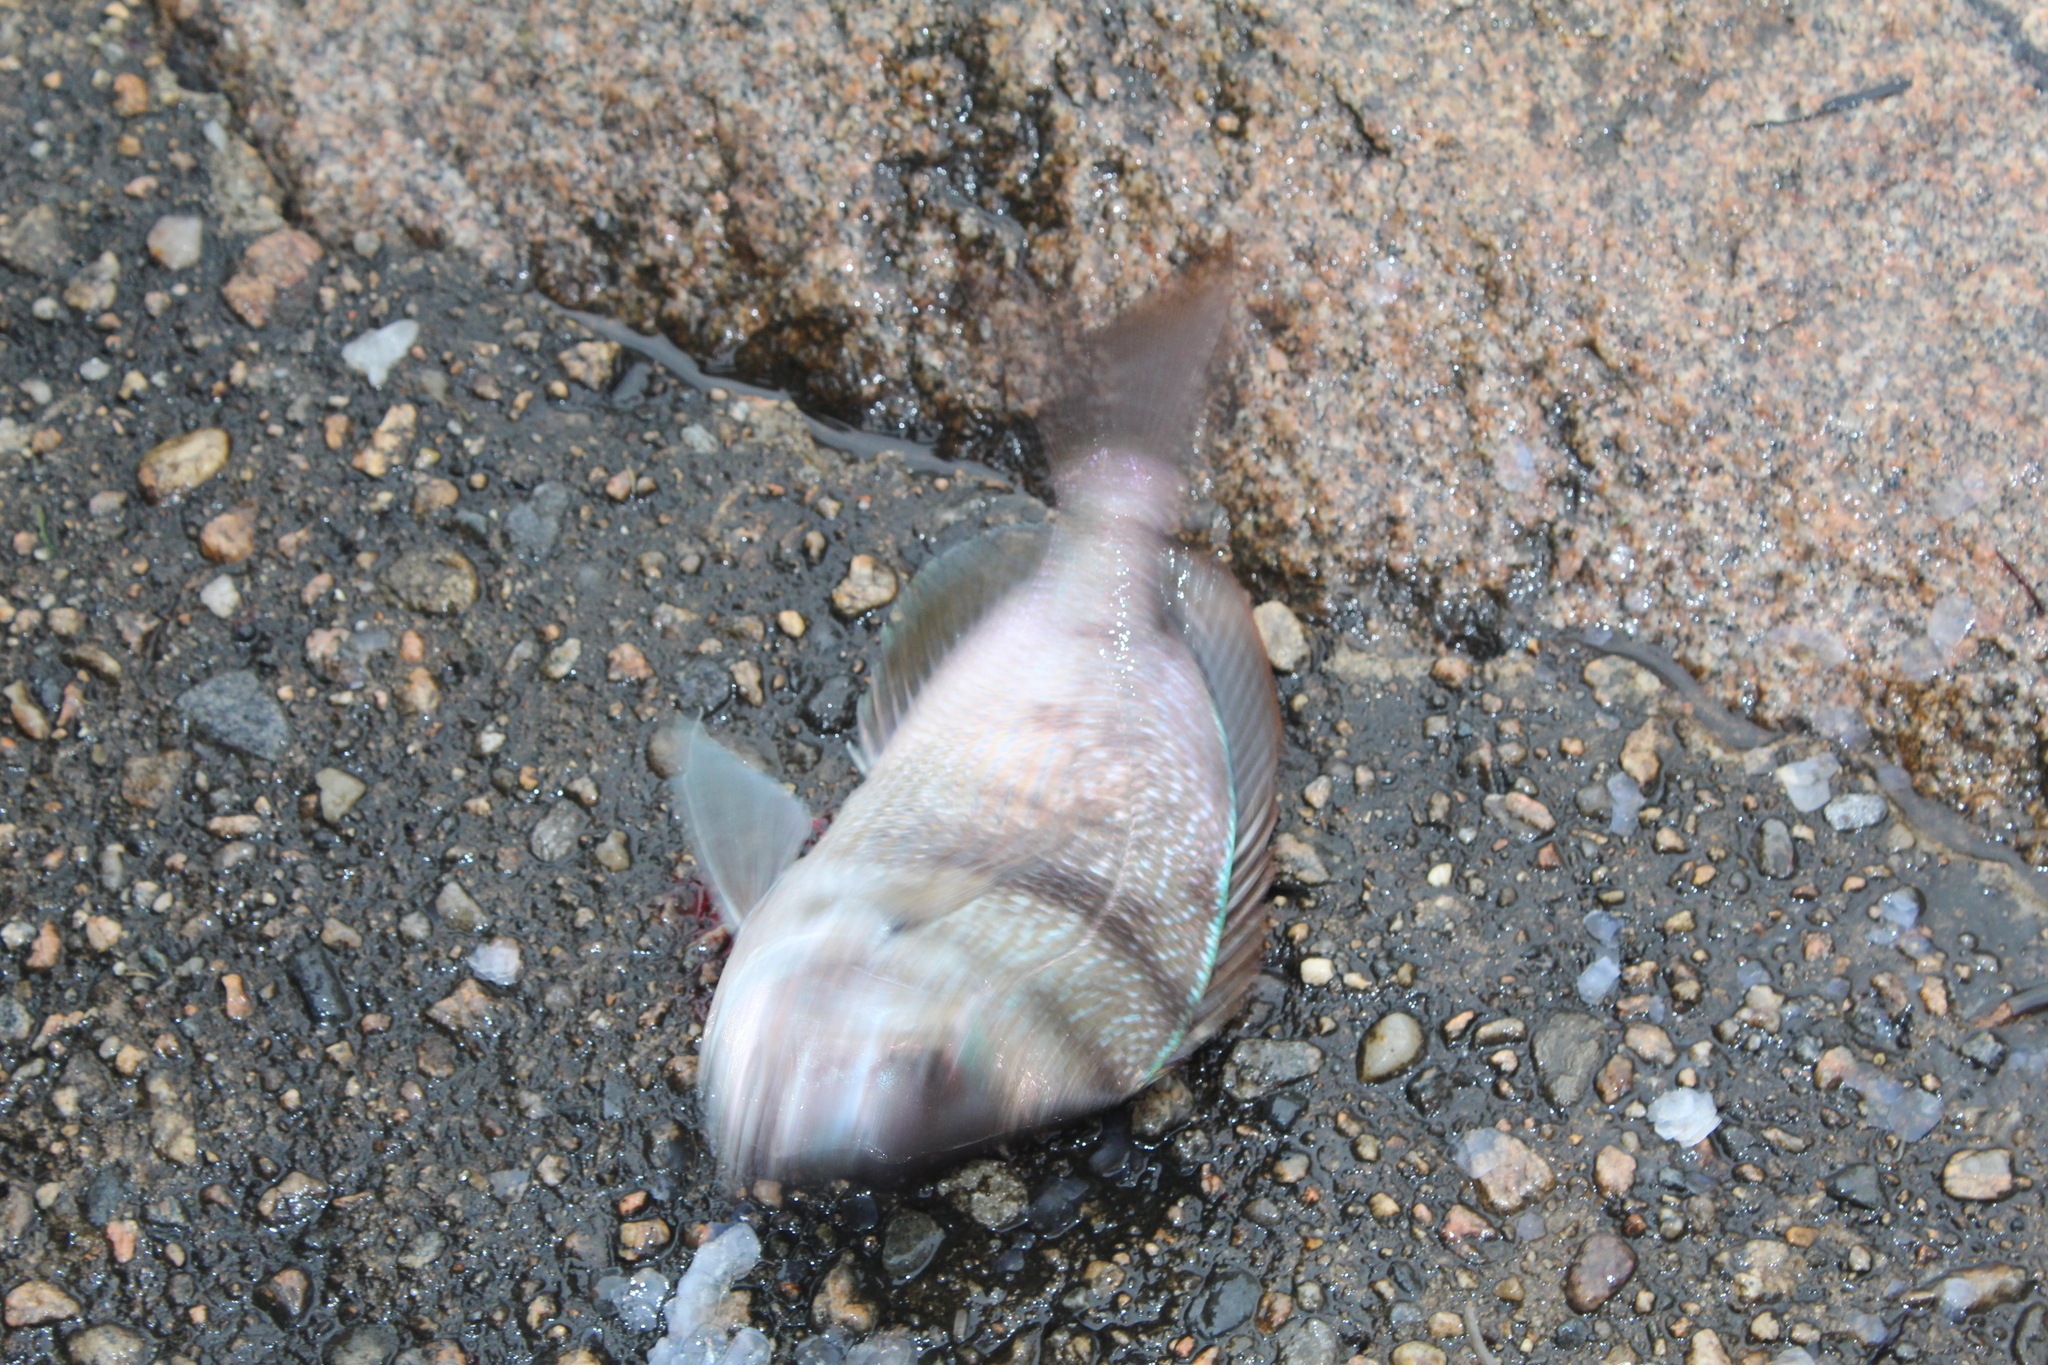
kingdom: Animalia
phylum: Chordata
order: Perciformes
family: Sparidae
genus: Stenotomus
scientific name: Stenotomus chrysops
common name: Scup
